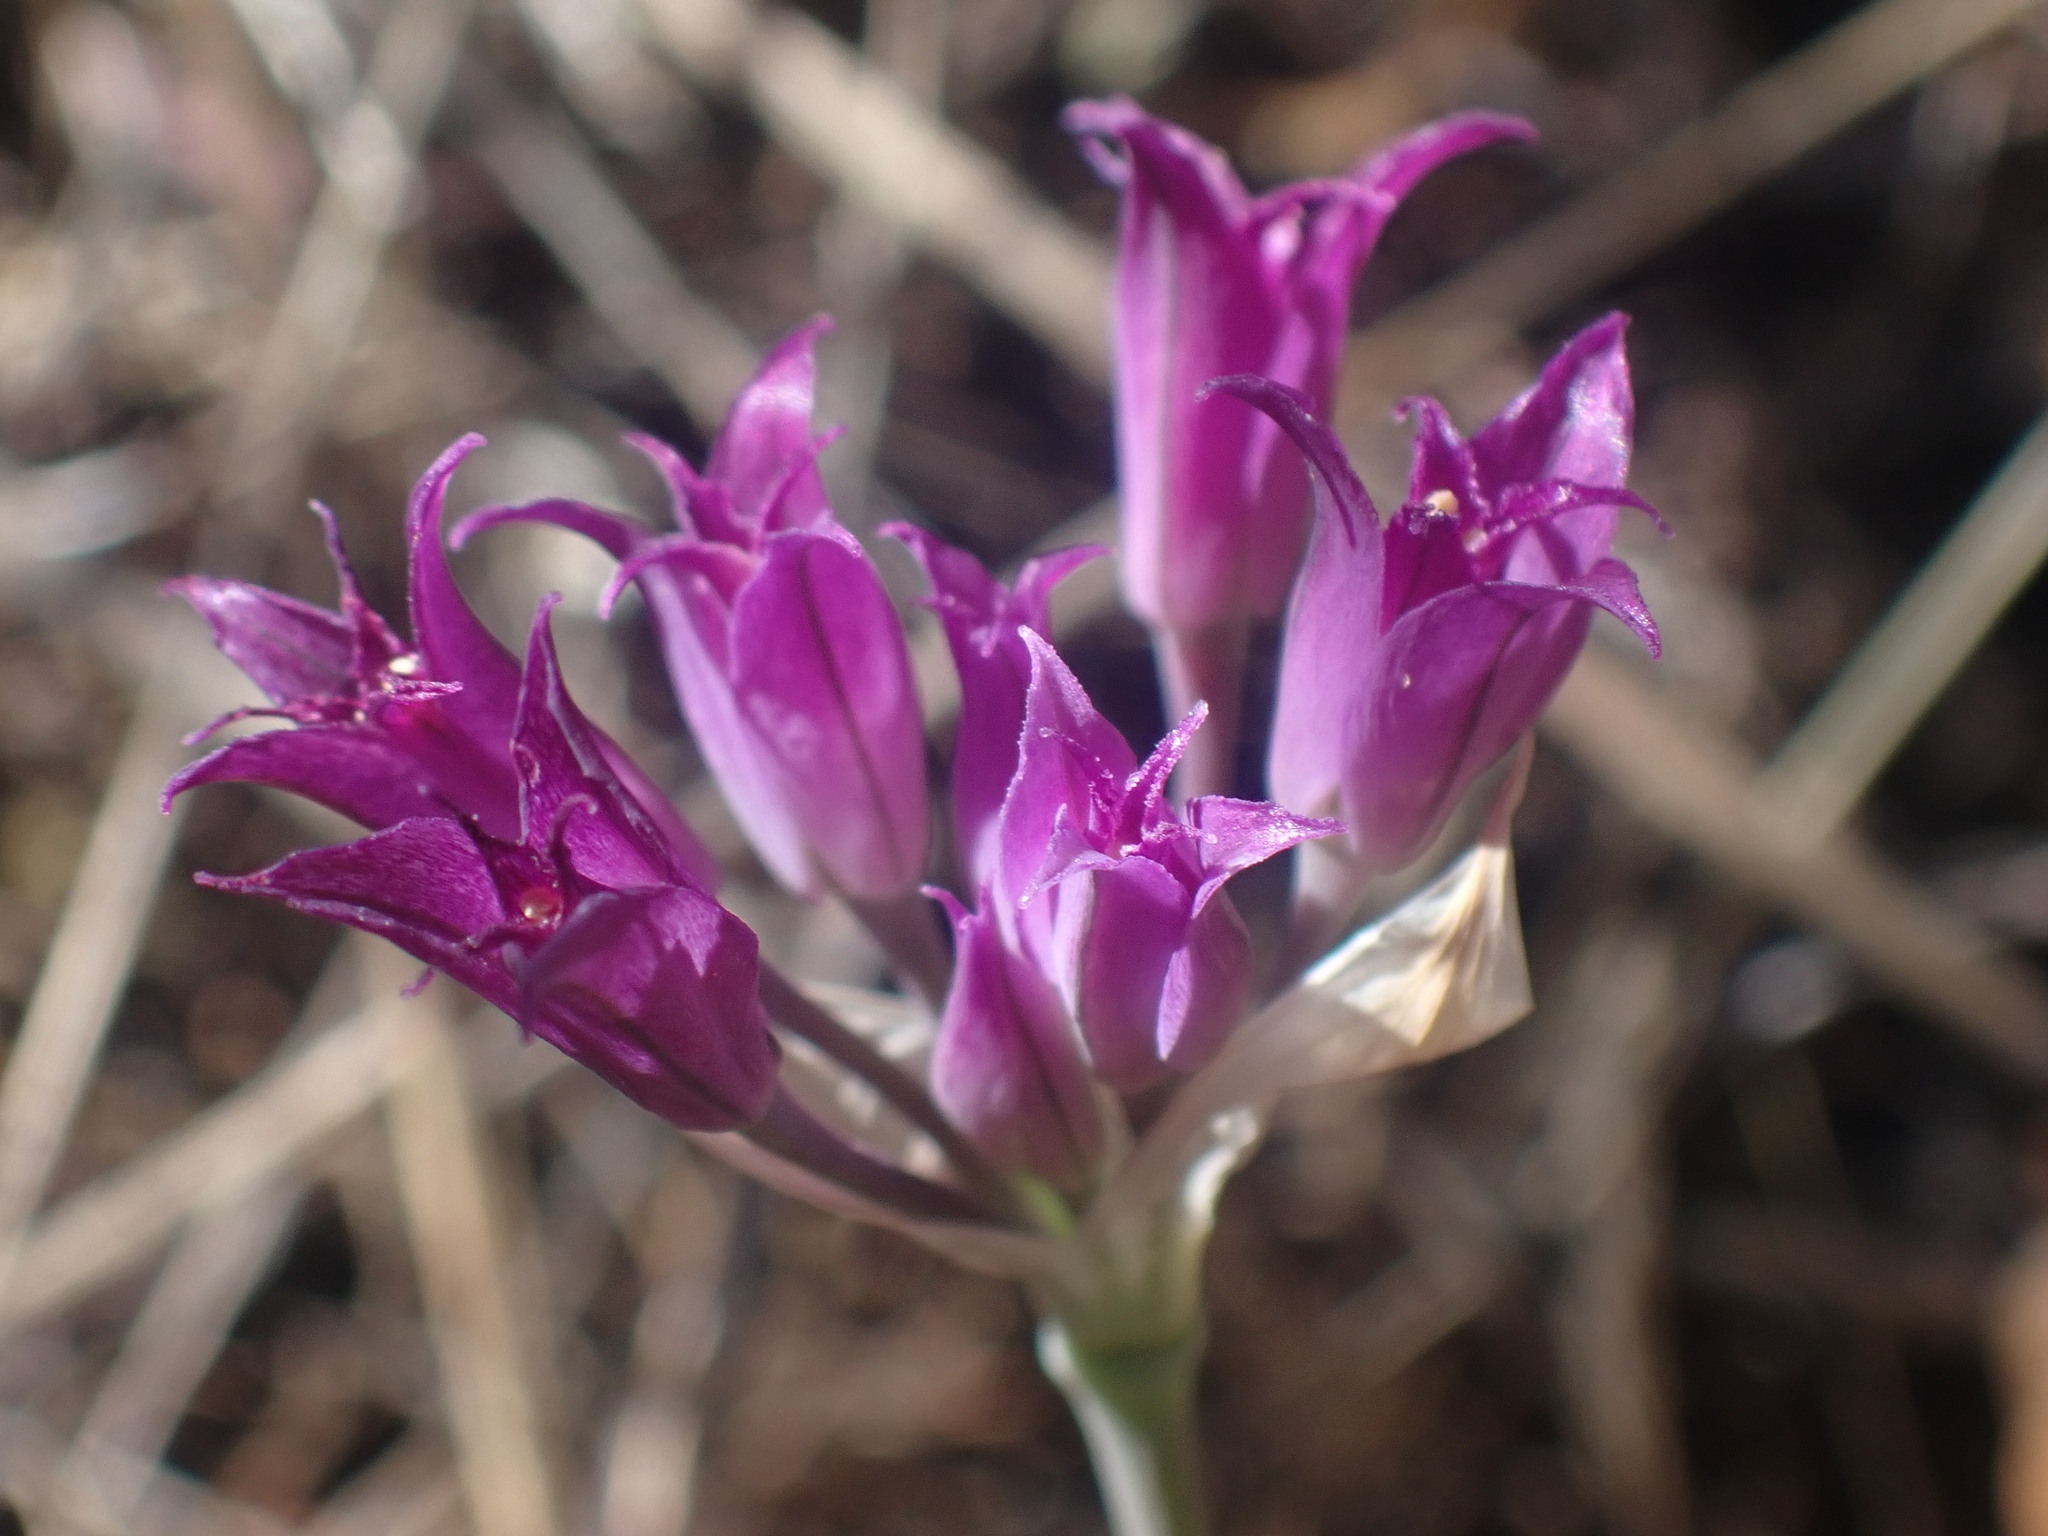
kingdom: Plantae
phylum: Tracheophyta
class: Liliopsida
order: Asparagales
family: Amaryllidaceae
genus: Allium
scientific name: Allium acuminatum
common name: Hooker's onion
